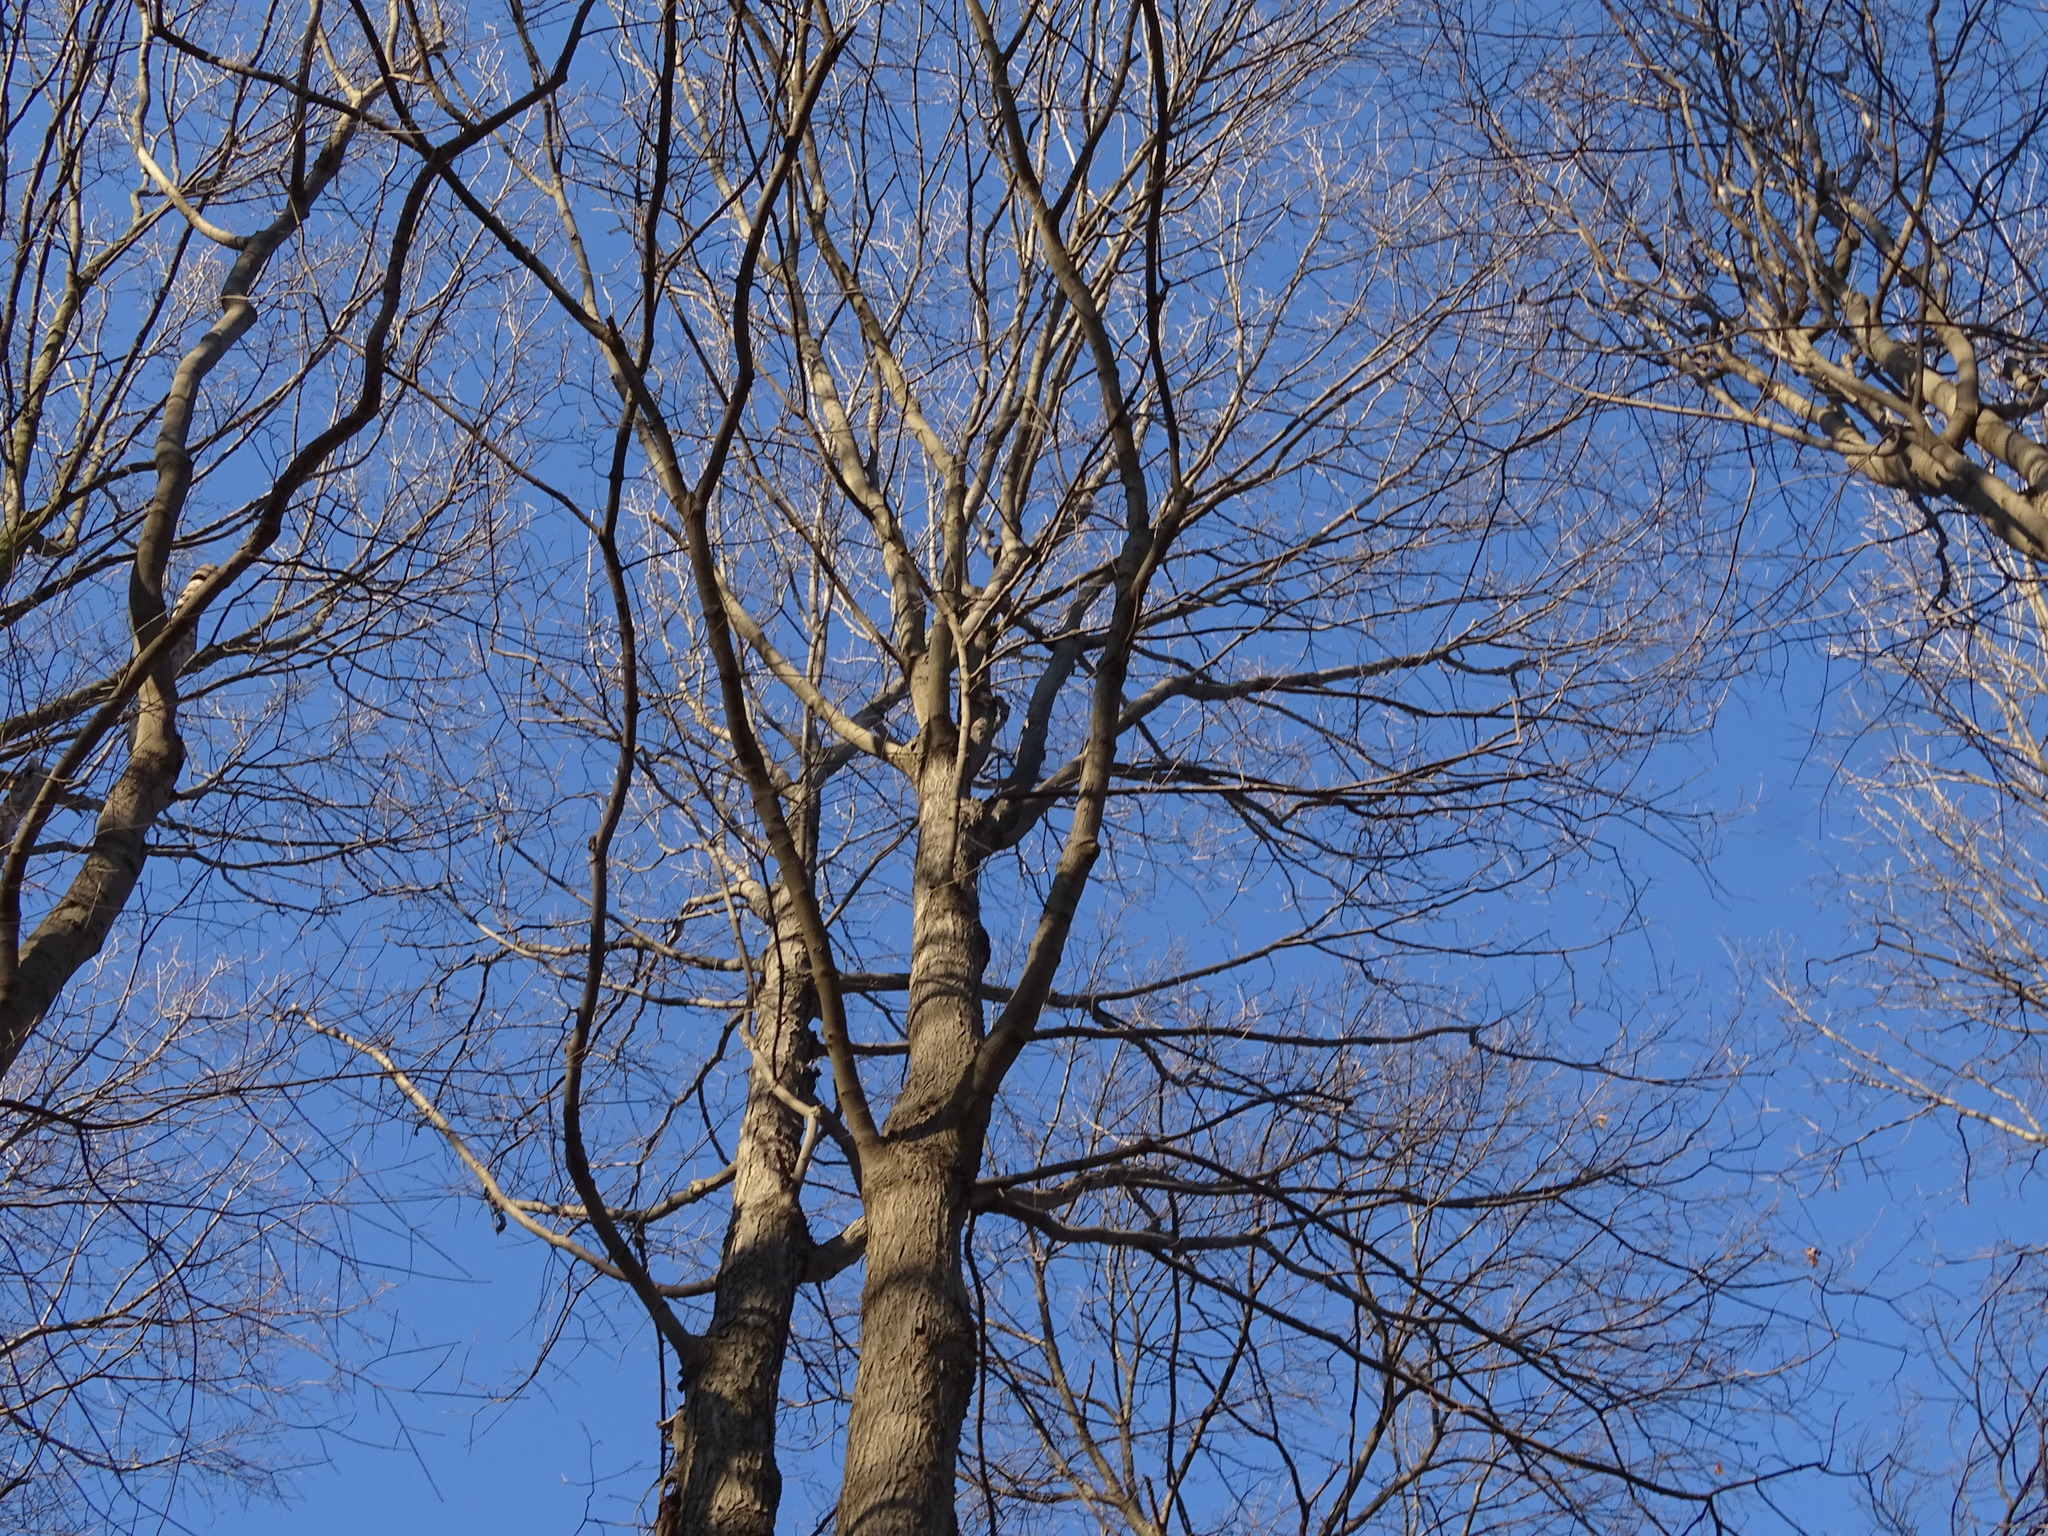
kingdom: Plantae
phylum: Tracheophyta
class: Magnoliopsida
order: Sapindales
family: Sapindaceae
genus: Acer
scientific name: Acer saccharum
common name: Sugar maple
